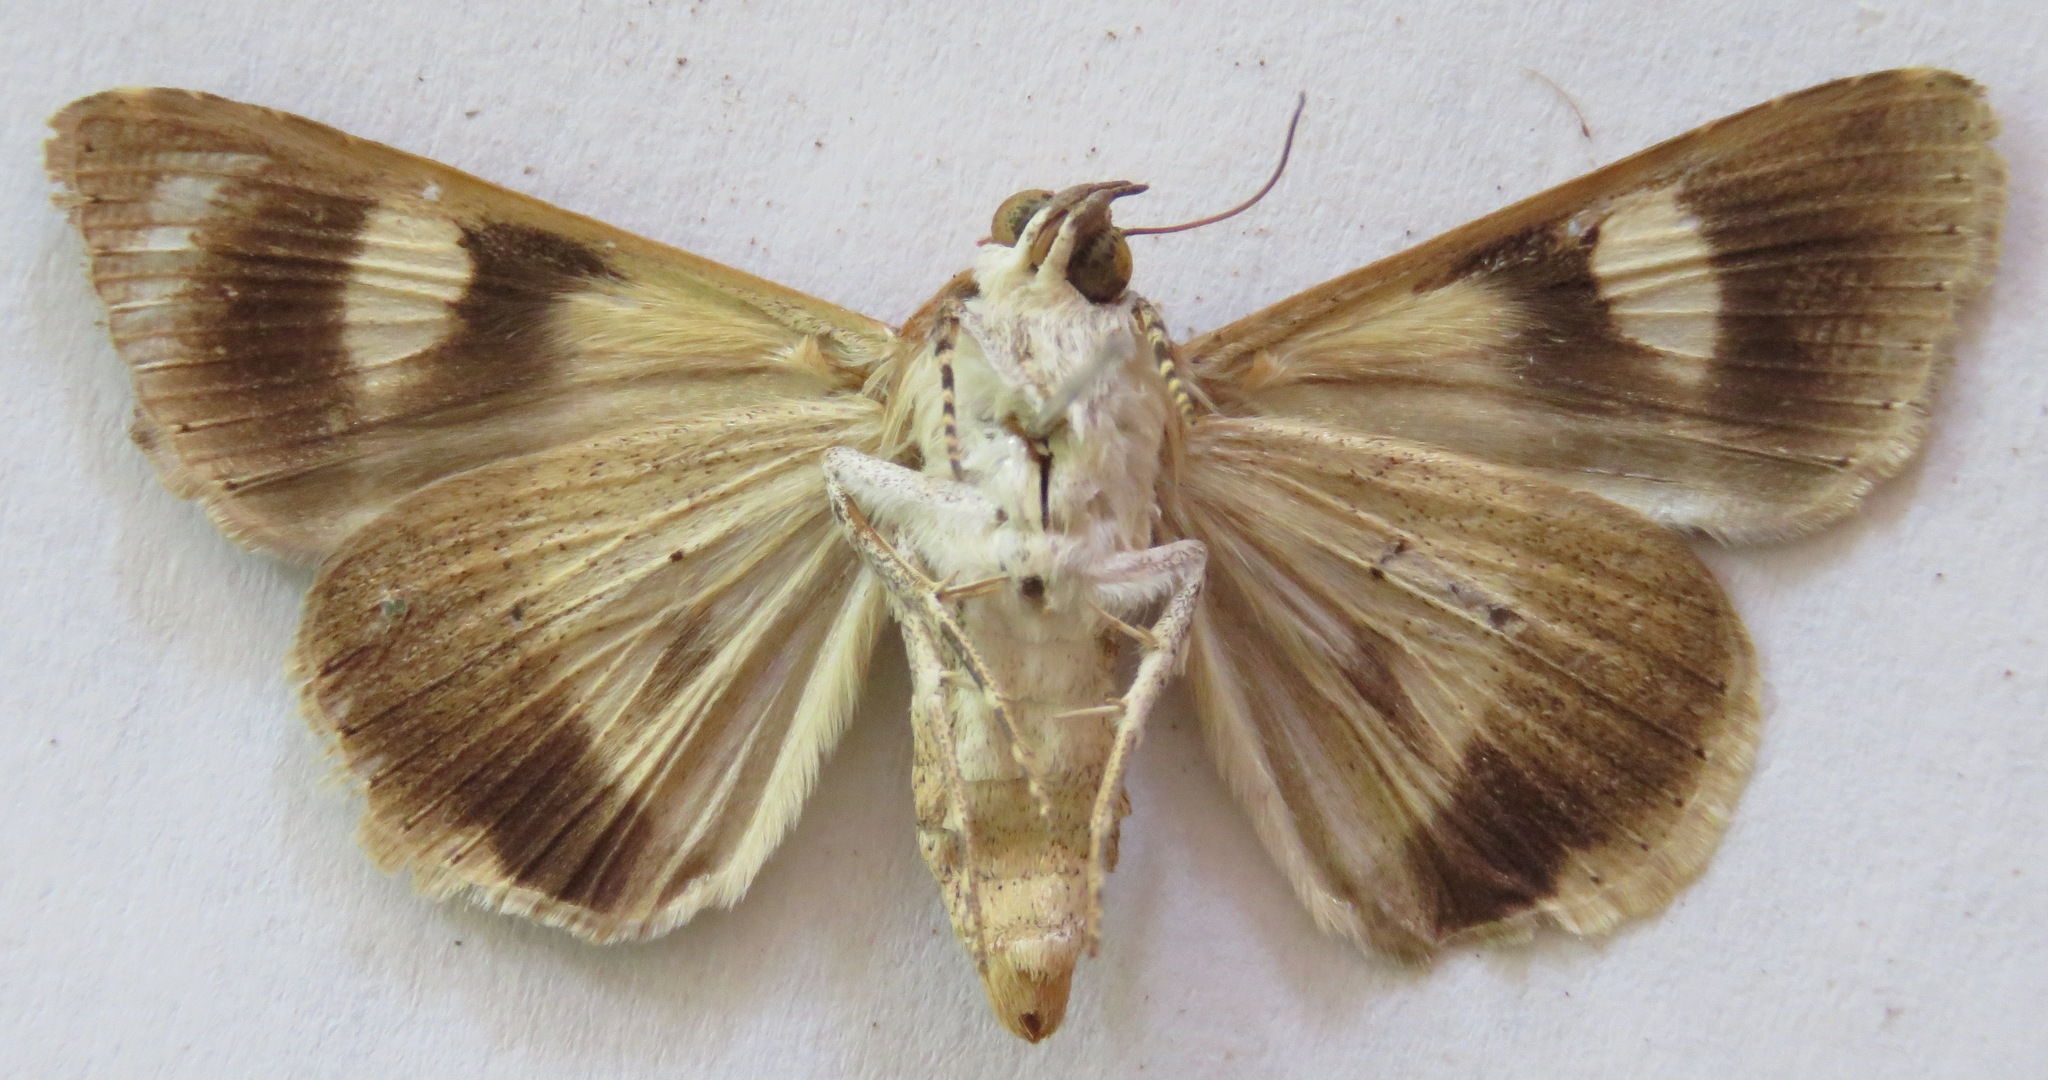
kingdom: Animalia
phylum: Arthropoda
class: Insecta
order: Lepidoptera
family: Erebidae
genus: Melipotis
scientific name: Melipotis januaris
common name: January melipotis moth
